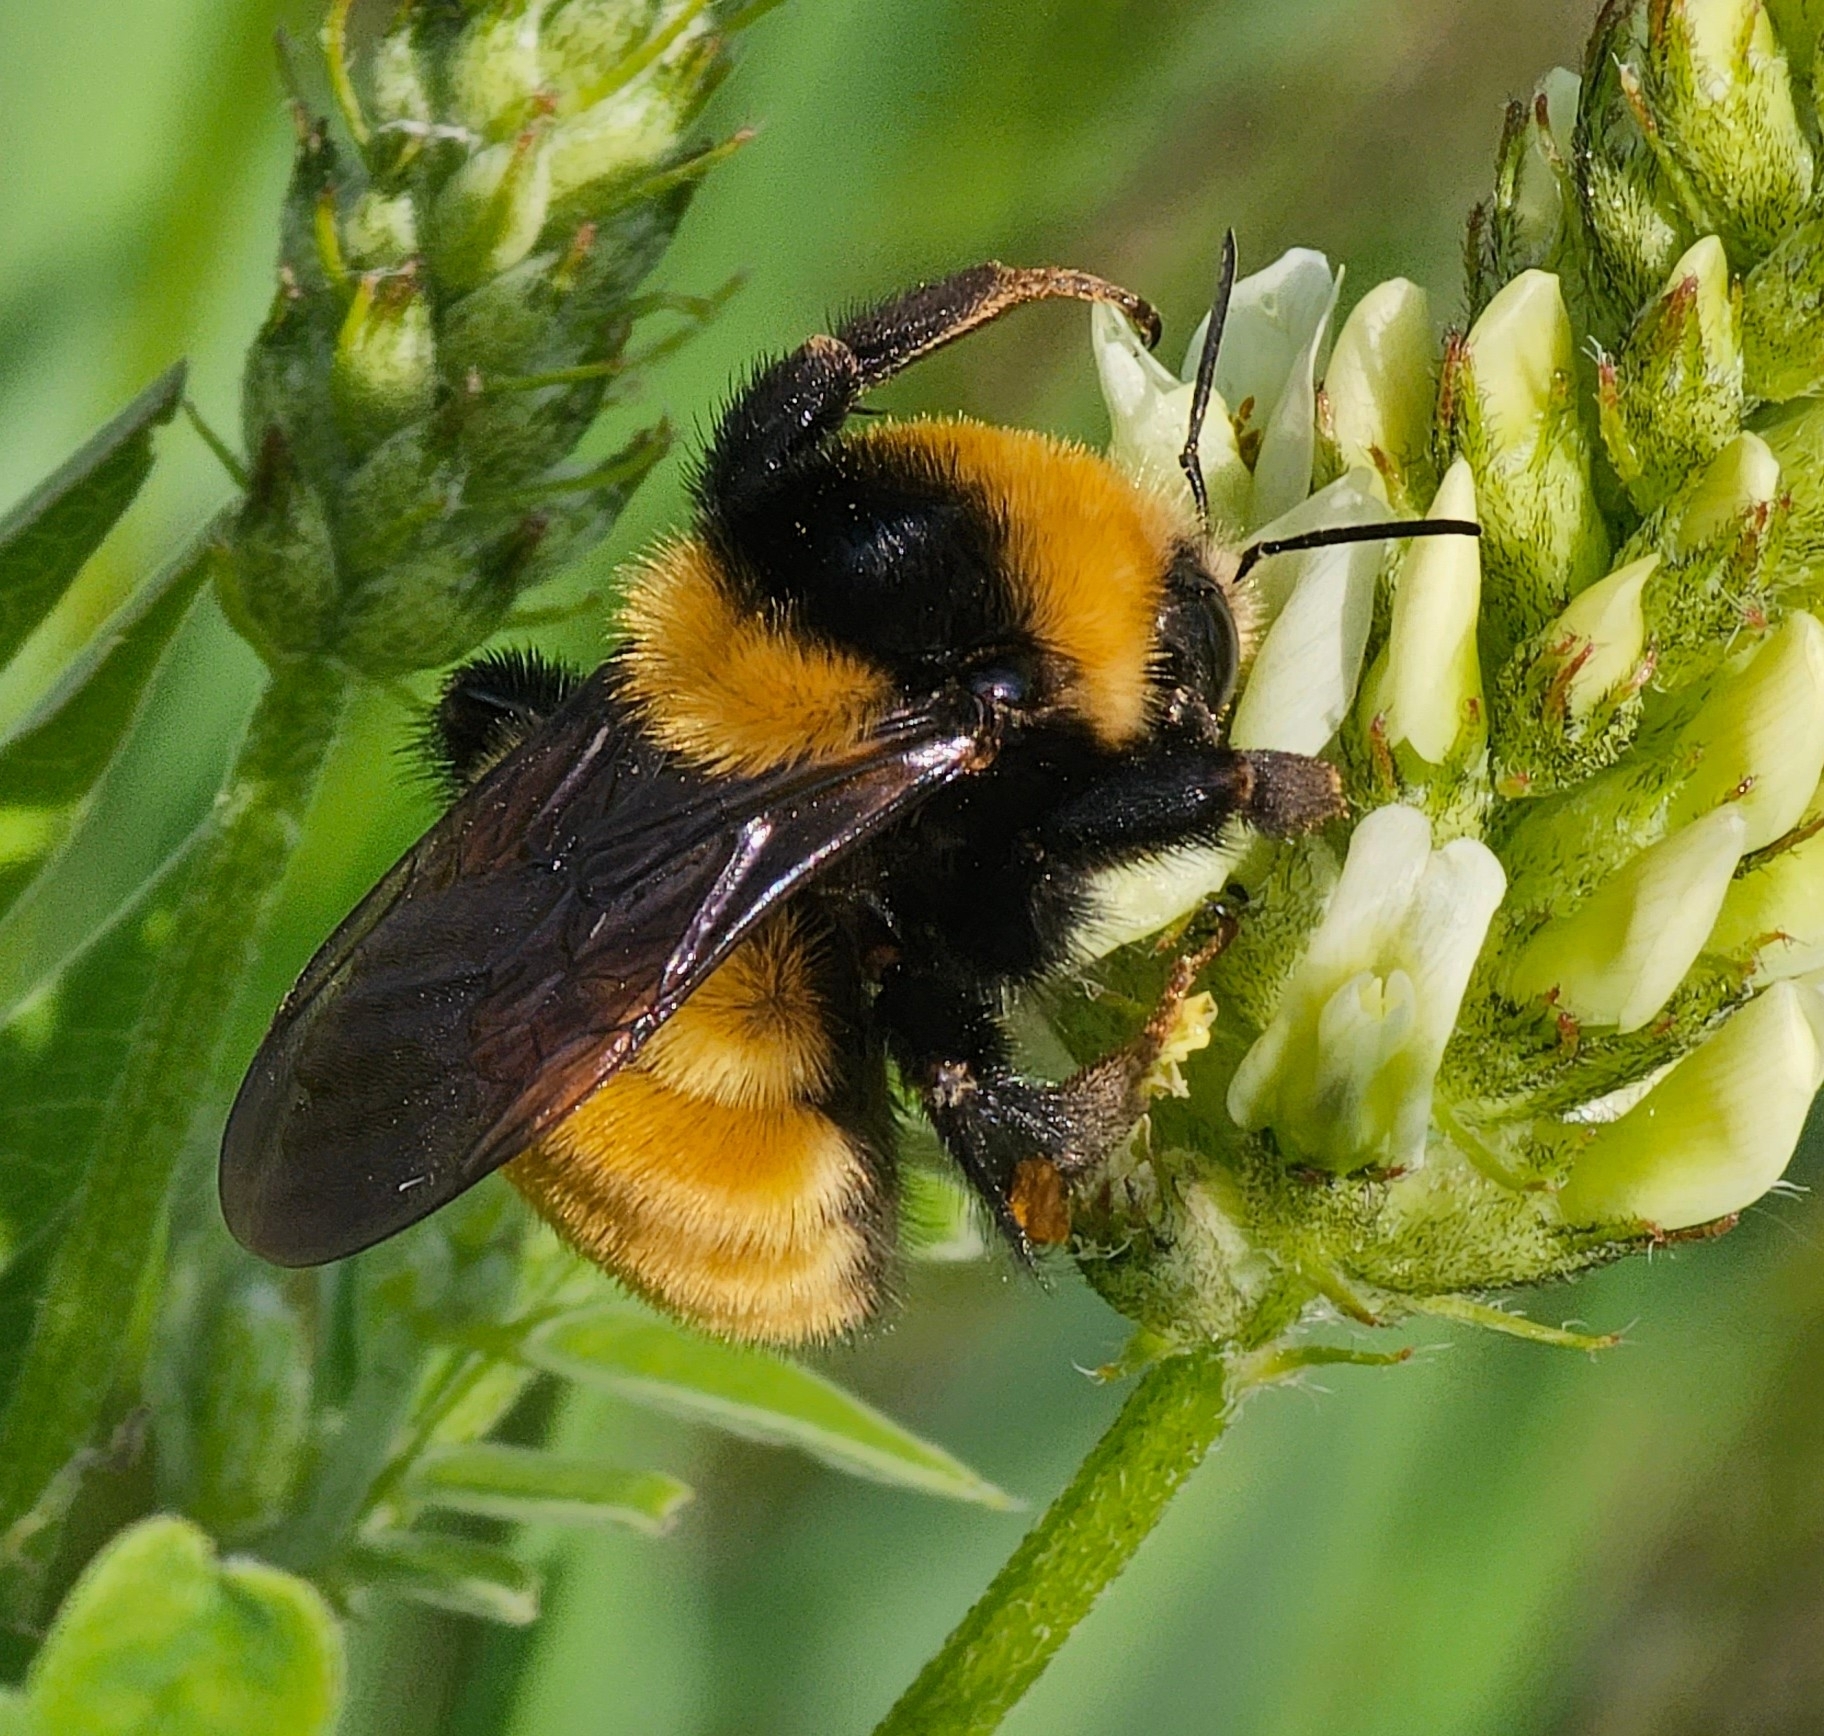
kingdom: Animalia
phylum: Arthropoda
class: Insecta
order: Hymenoptera
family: Apidae
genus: Bombus
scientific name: Bombus borealis
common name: Northern amber bumble bee
